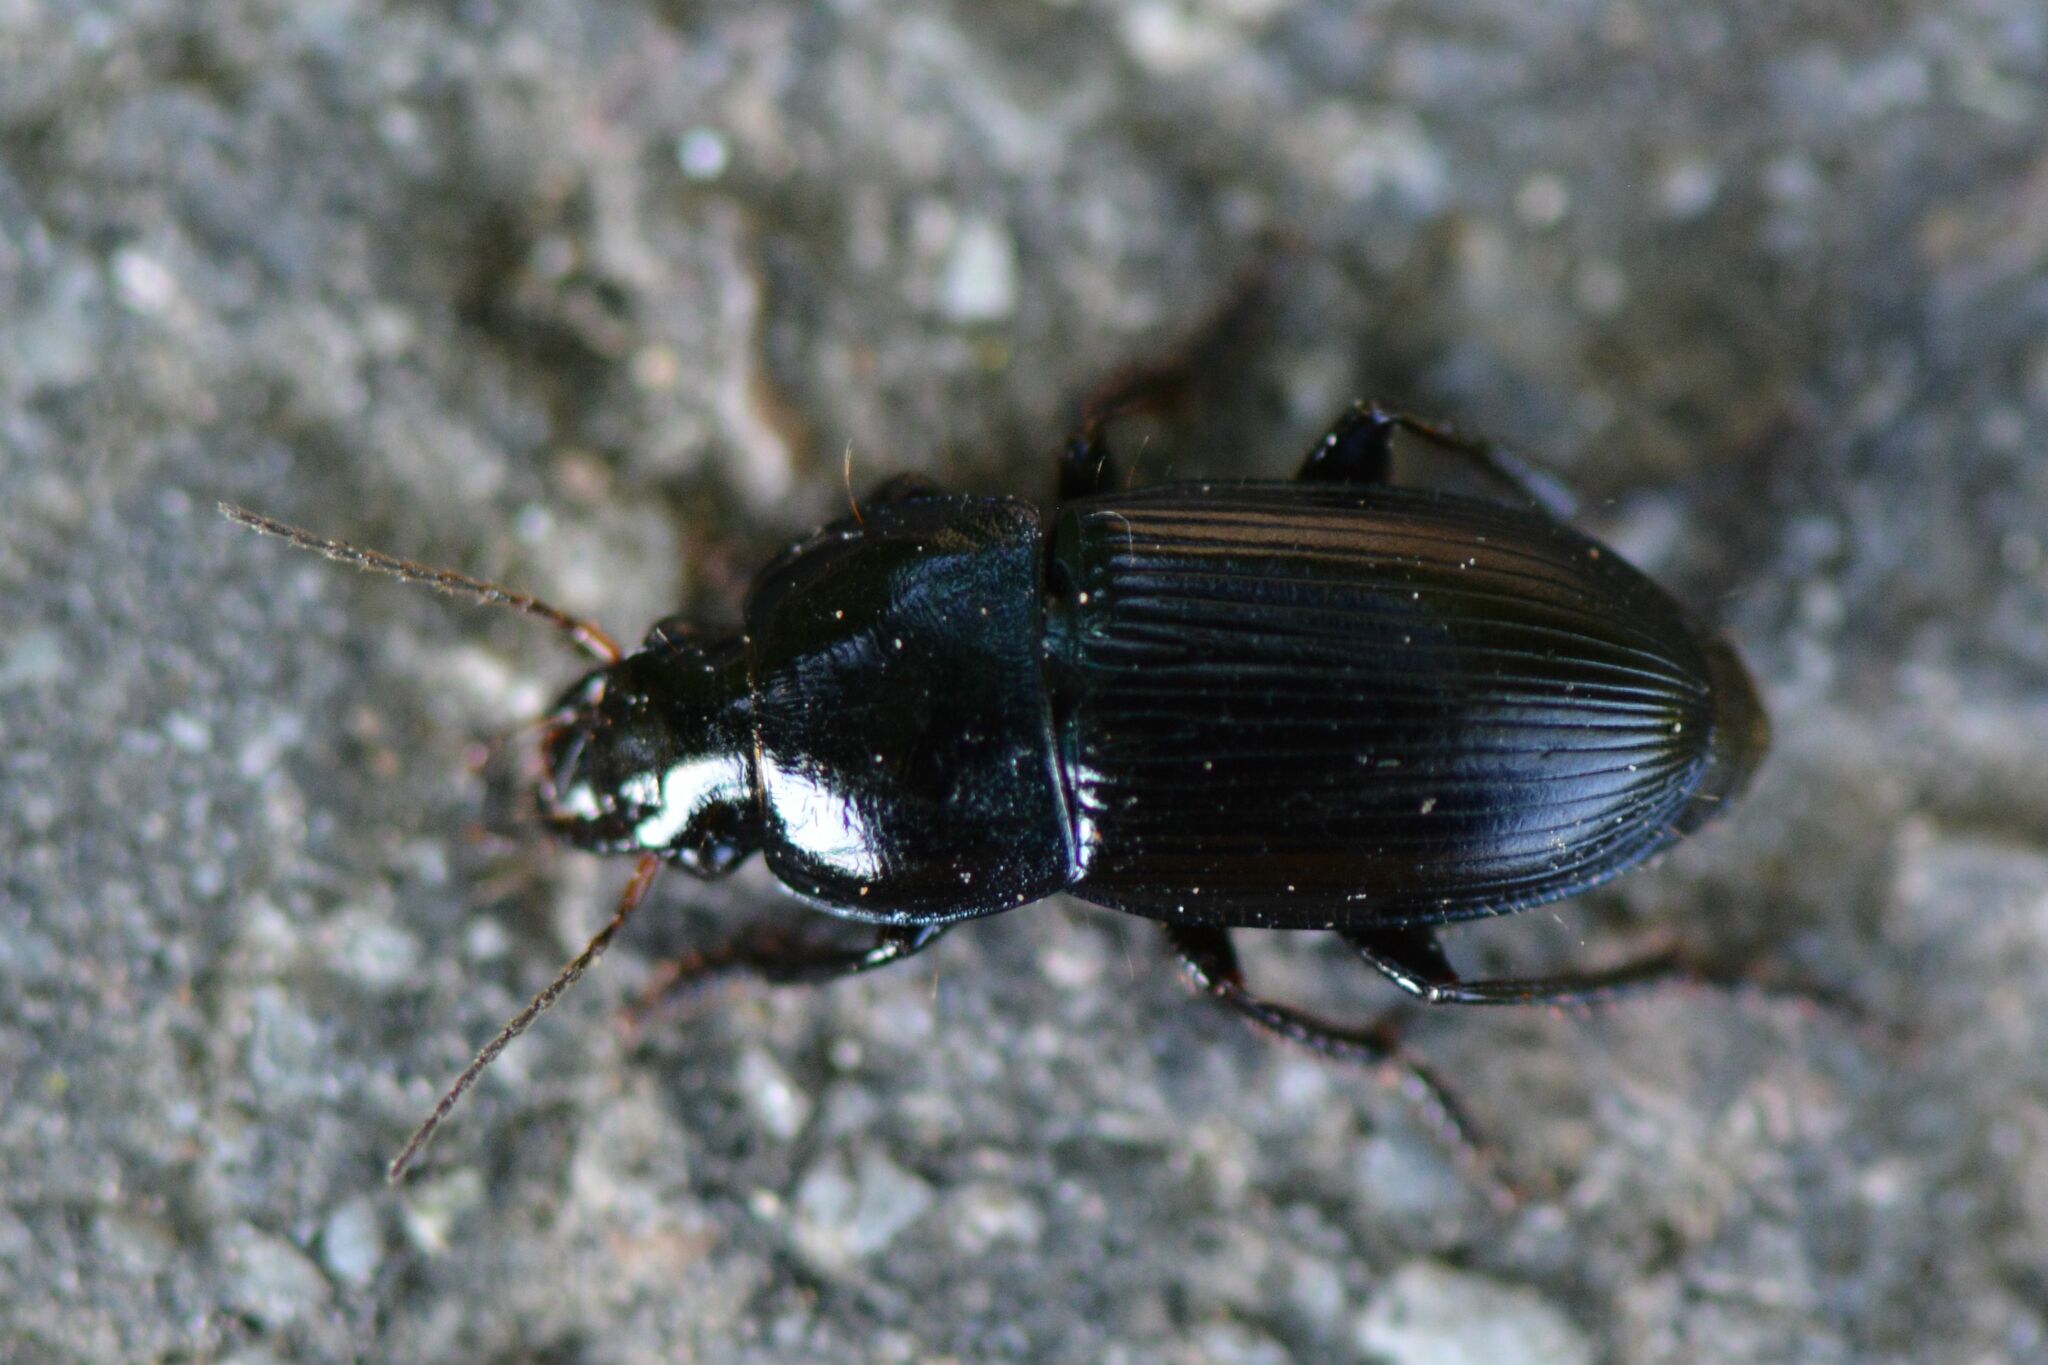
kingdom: Animalia
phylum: Arthropoda
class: Insecta
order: Coleoptera
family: Carabidae
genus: Harpalus
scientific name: Harpalus dimidiatus
